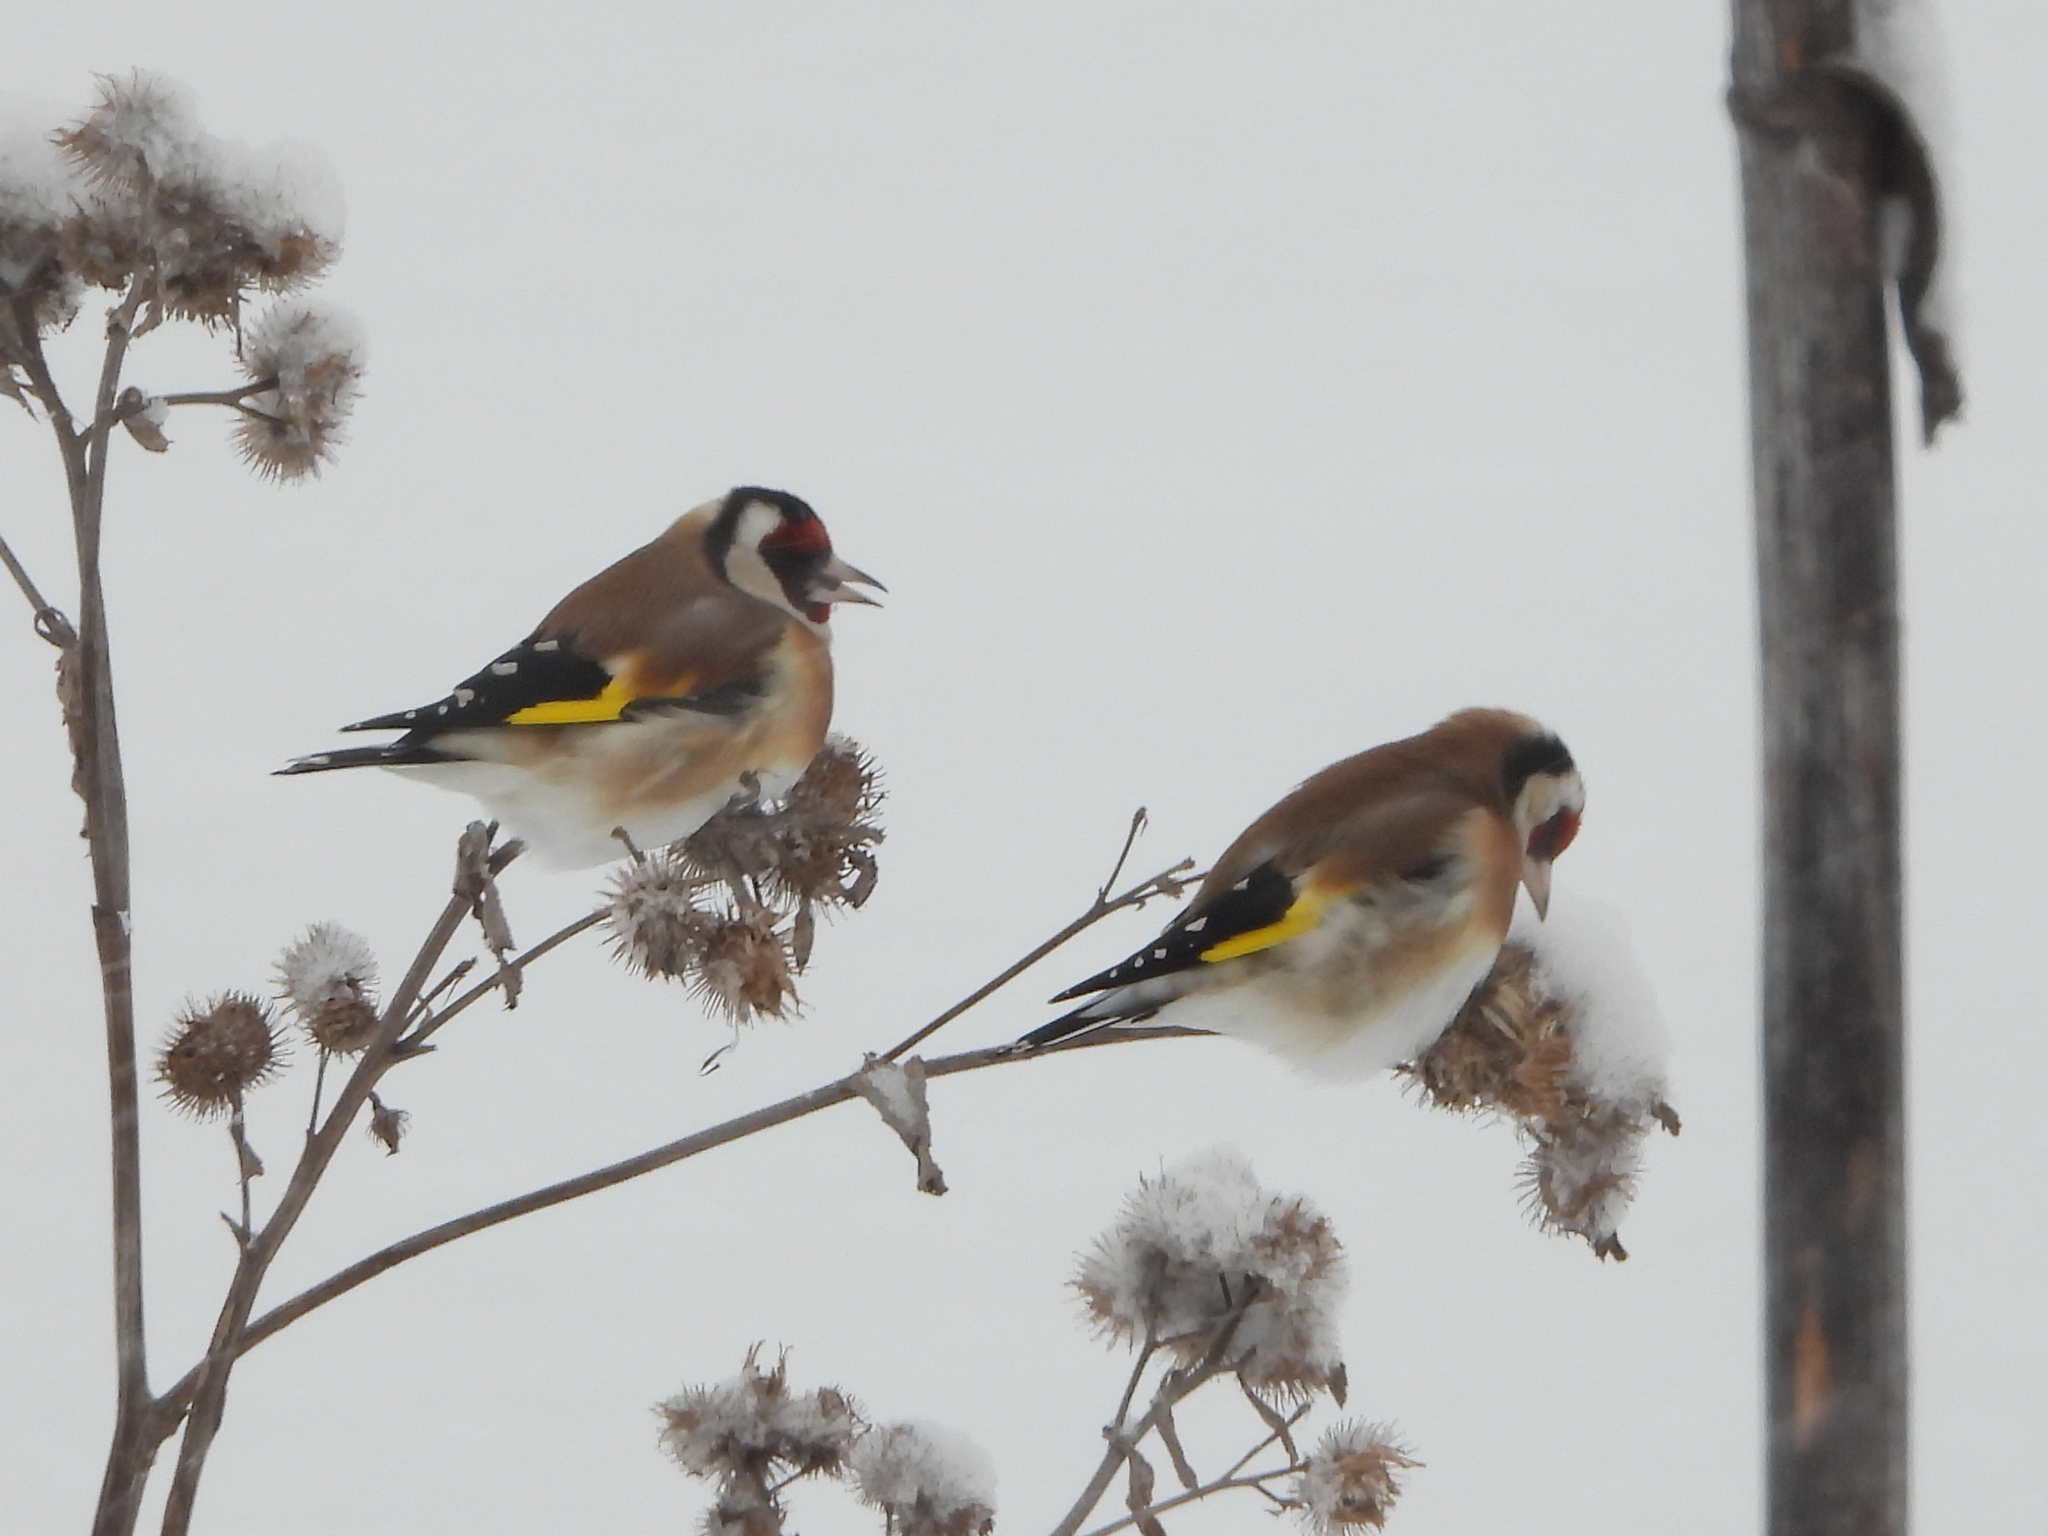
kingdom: Animalia
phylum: Chordata
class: Aves
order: Passeriformes
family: Fringillidae
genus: Carduelis
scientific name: Carduelis carduelis
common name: European goldfinch
